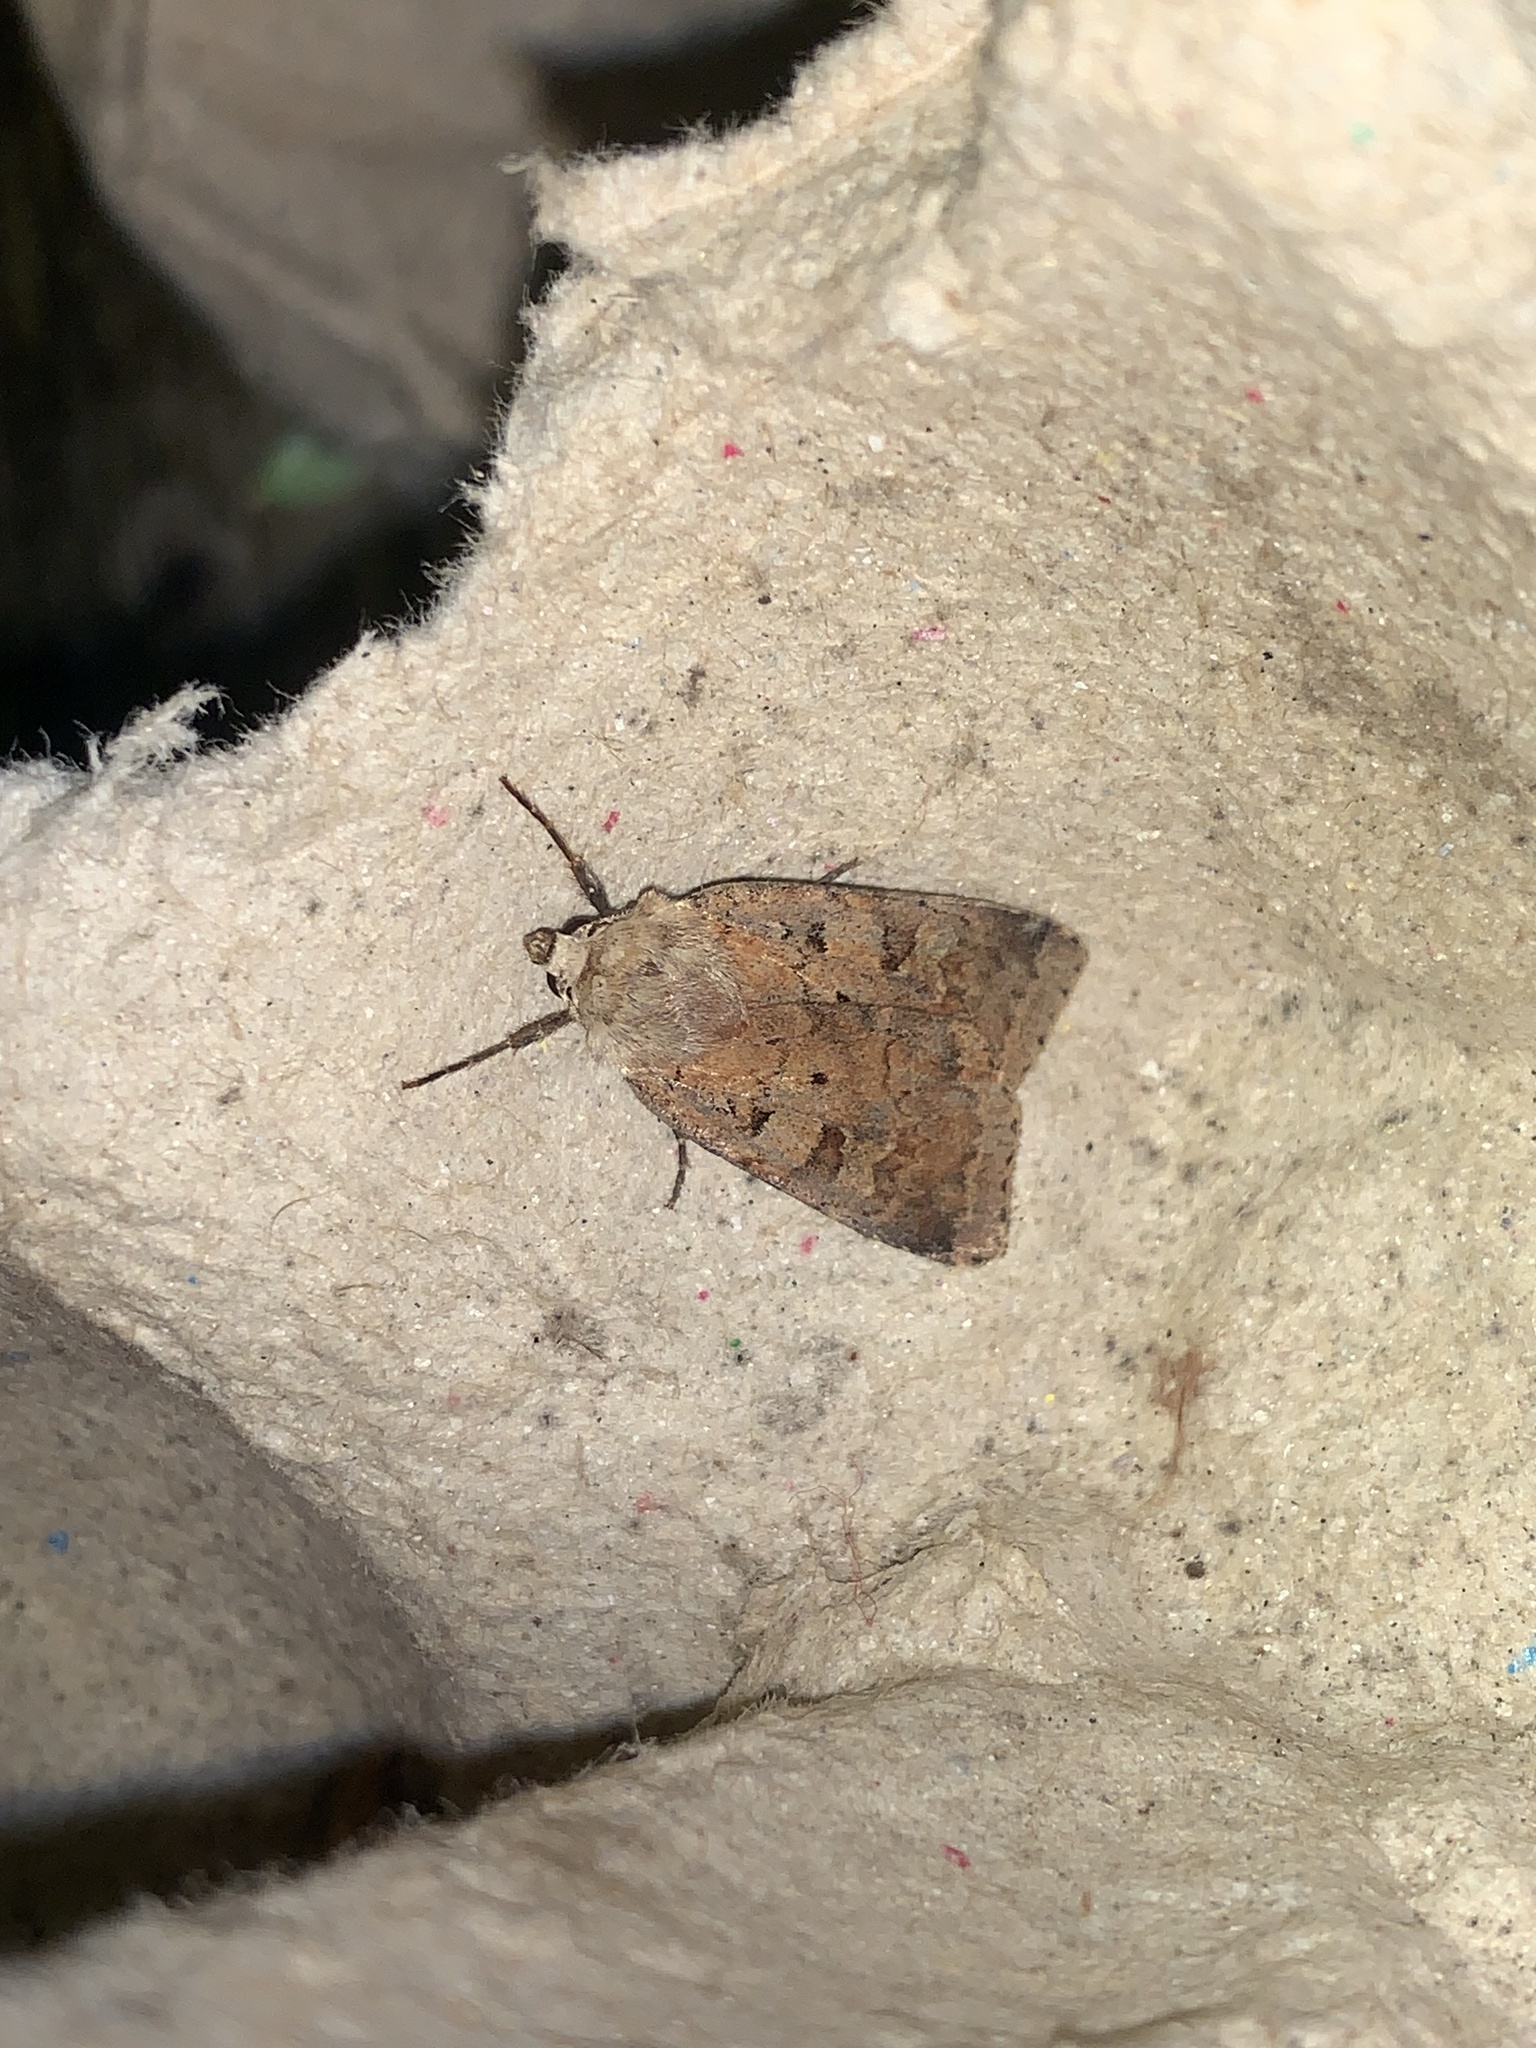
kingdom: Animalia
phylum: Arthropoda
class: Insecta
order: Lepidoptera
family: Noctuidae
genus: Diarsia
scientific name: Diarsia mendica
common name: Ingrailed clay
